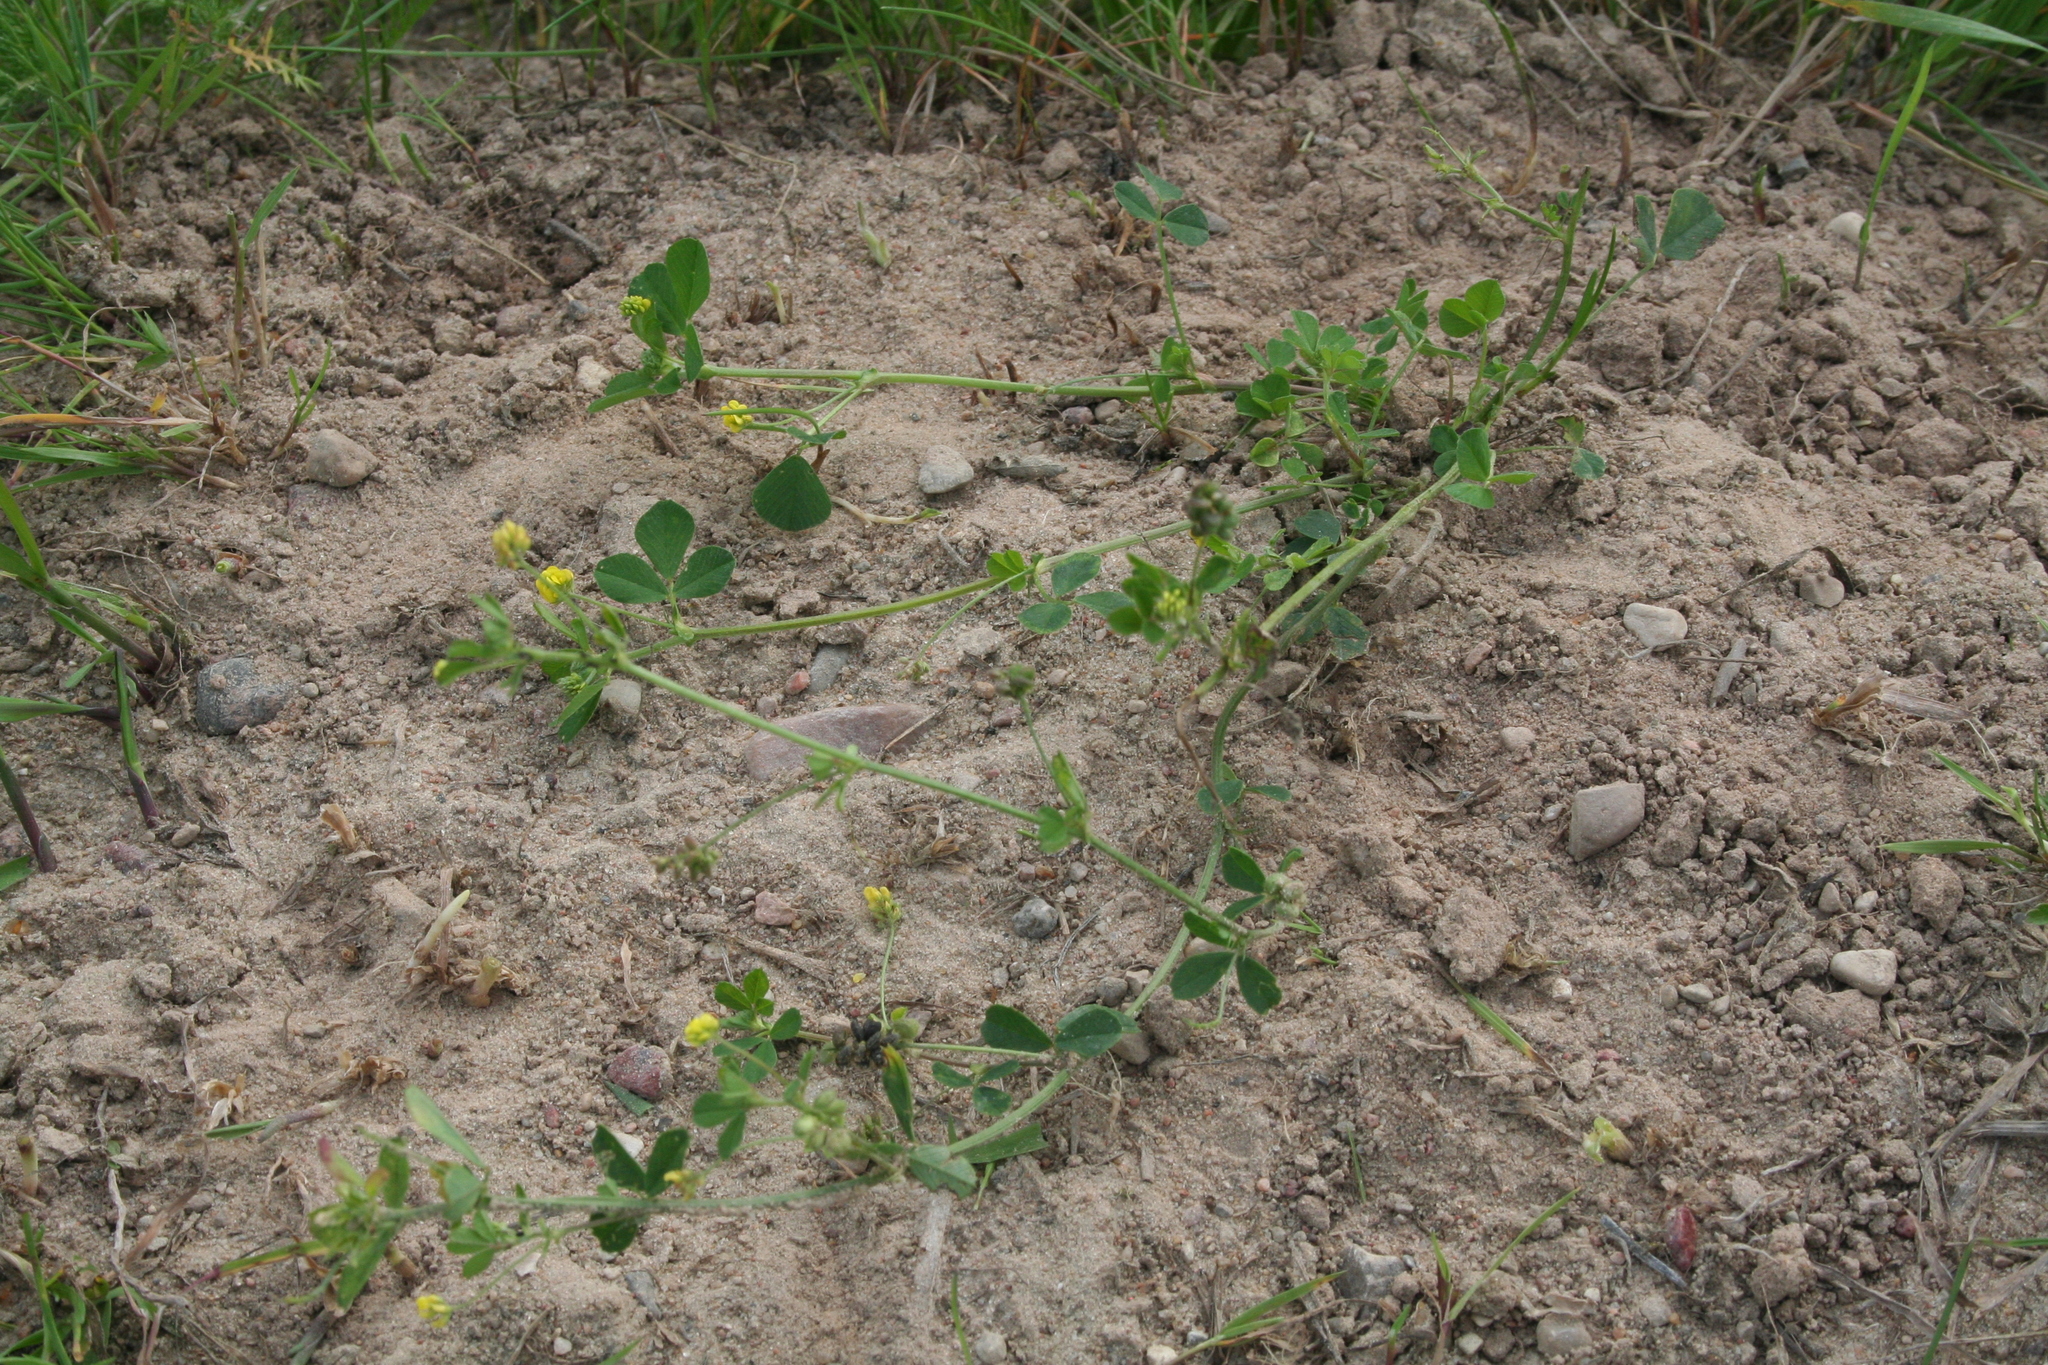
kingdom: Plantae
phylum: Tracheophyta
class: Magnoliopsida
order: Fabales
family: Fabaceae
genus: Medicago
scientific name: Medicago lupulina
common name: Black medick
